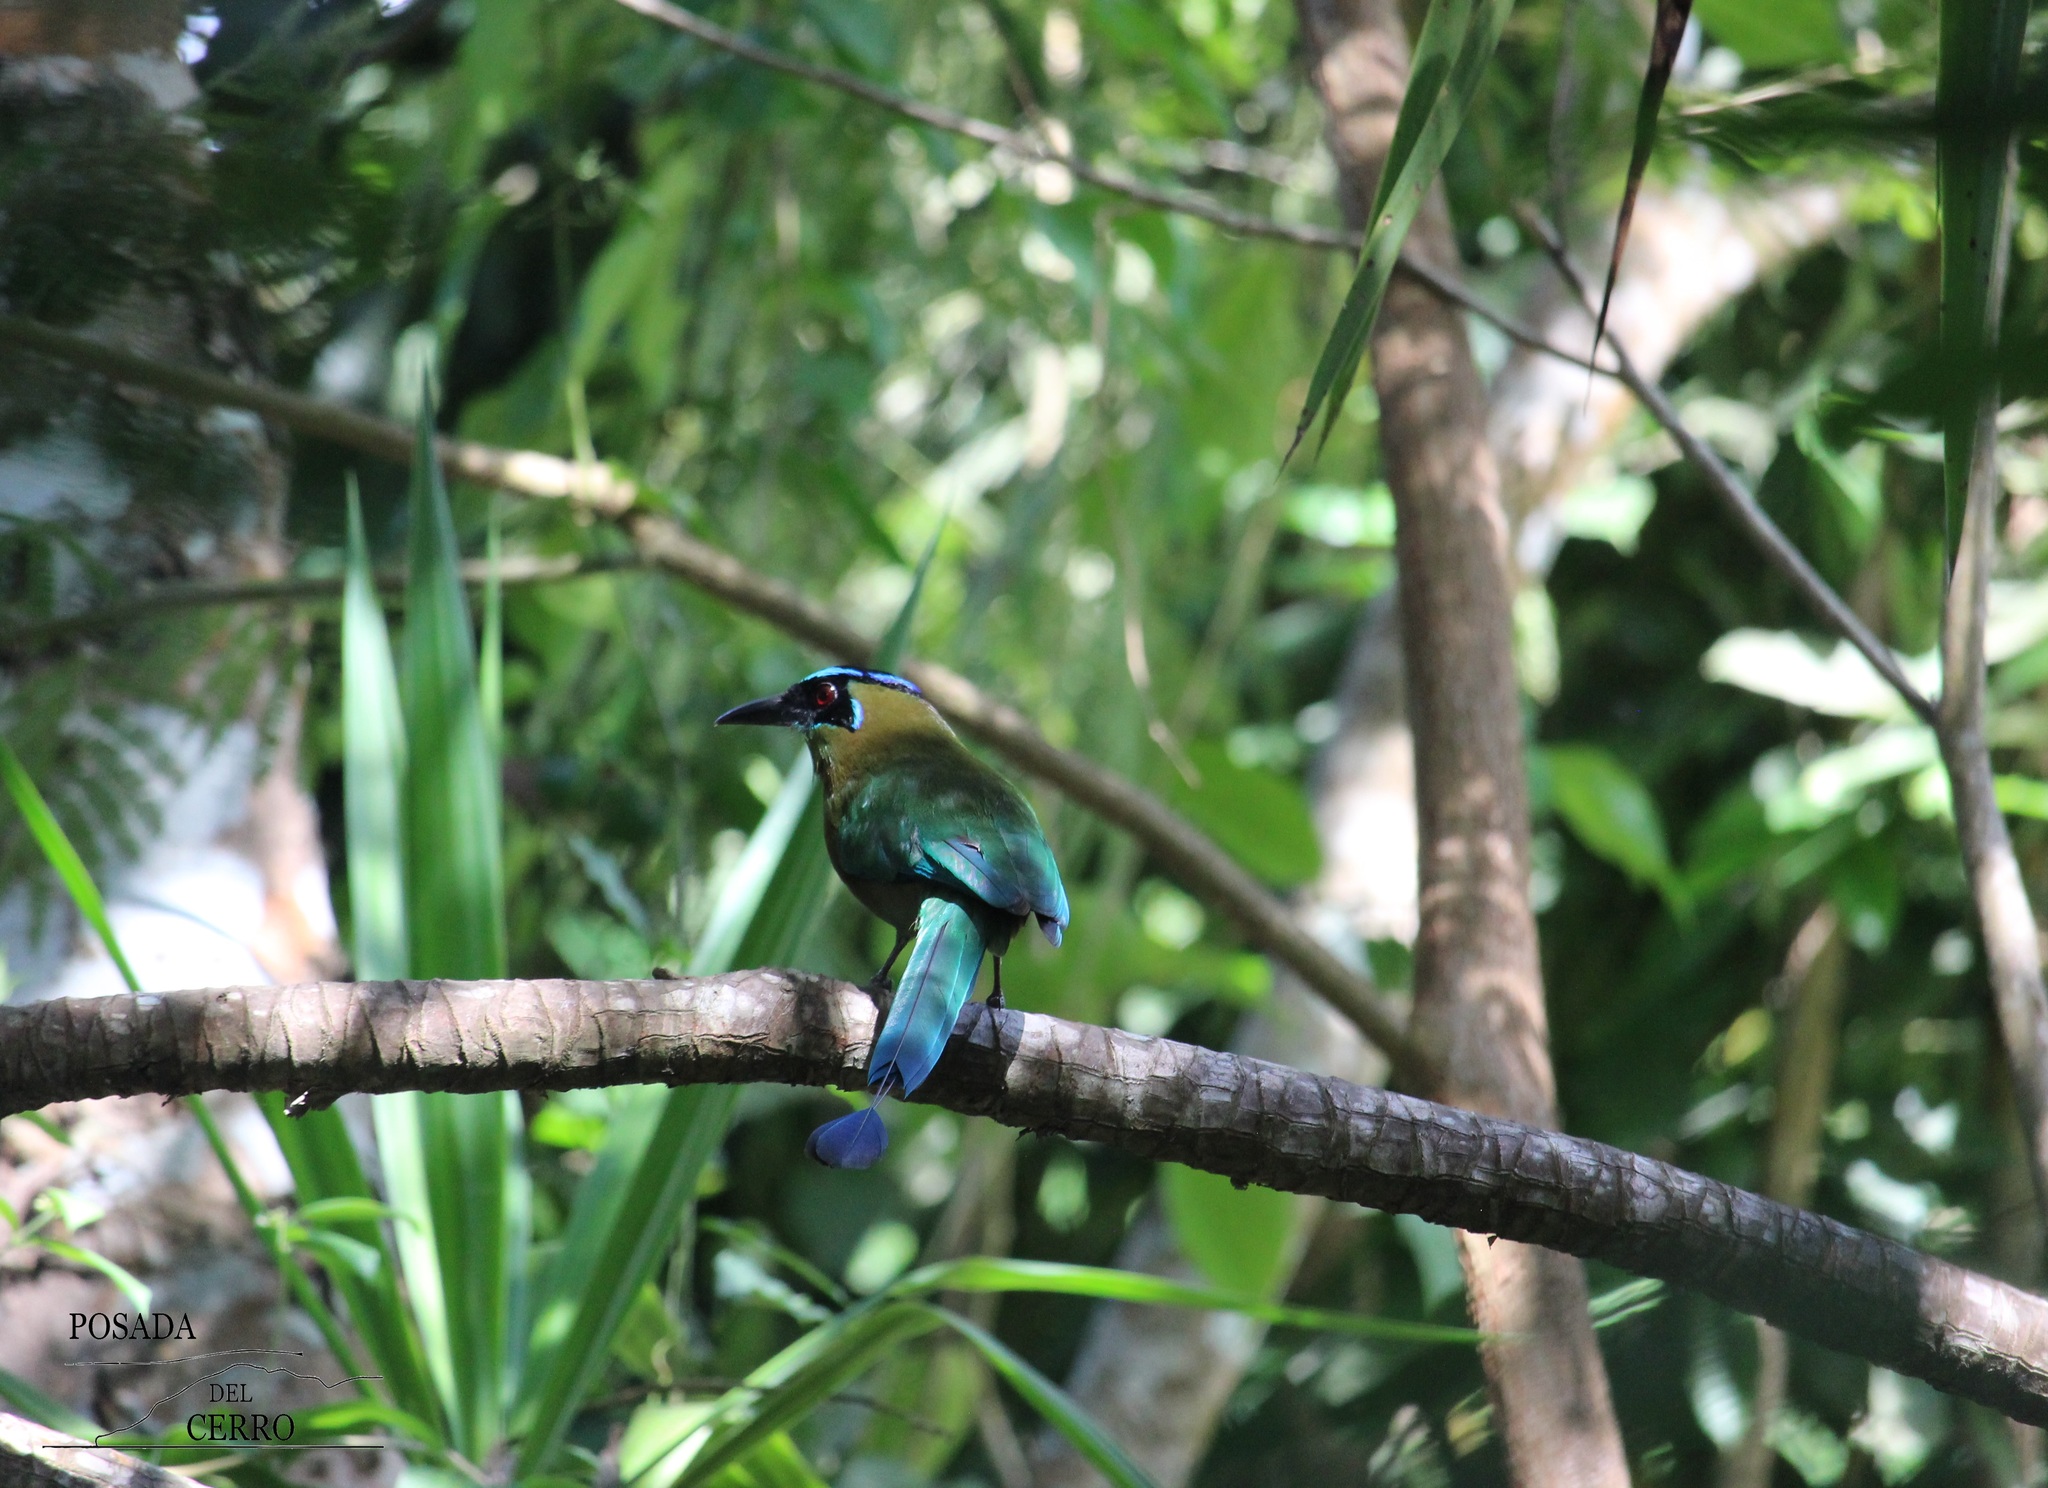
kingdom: Animalia
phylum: Chordata
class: Aves
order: Coraciiformes
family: Momotidae
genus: Momotus
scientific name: Momotus lessonii
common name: Lesson's motmot
